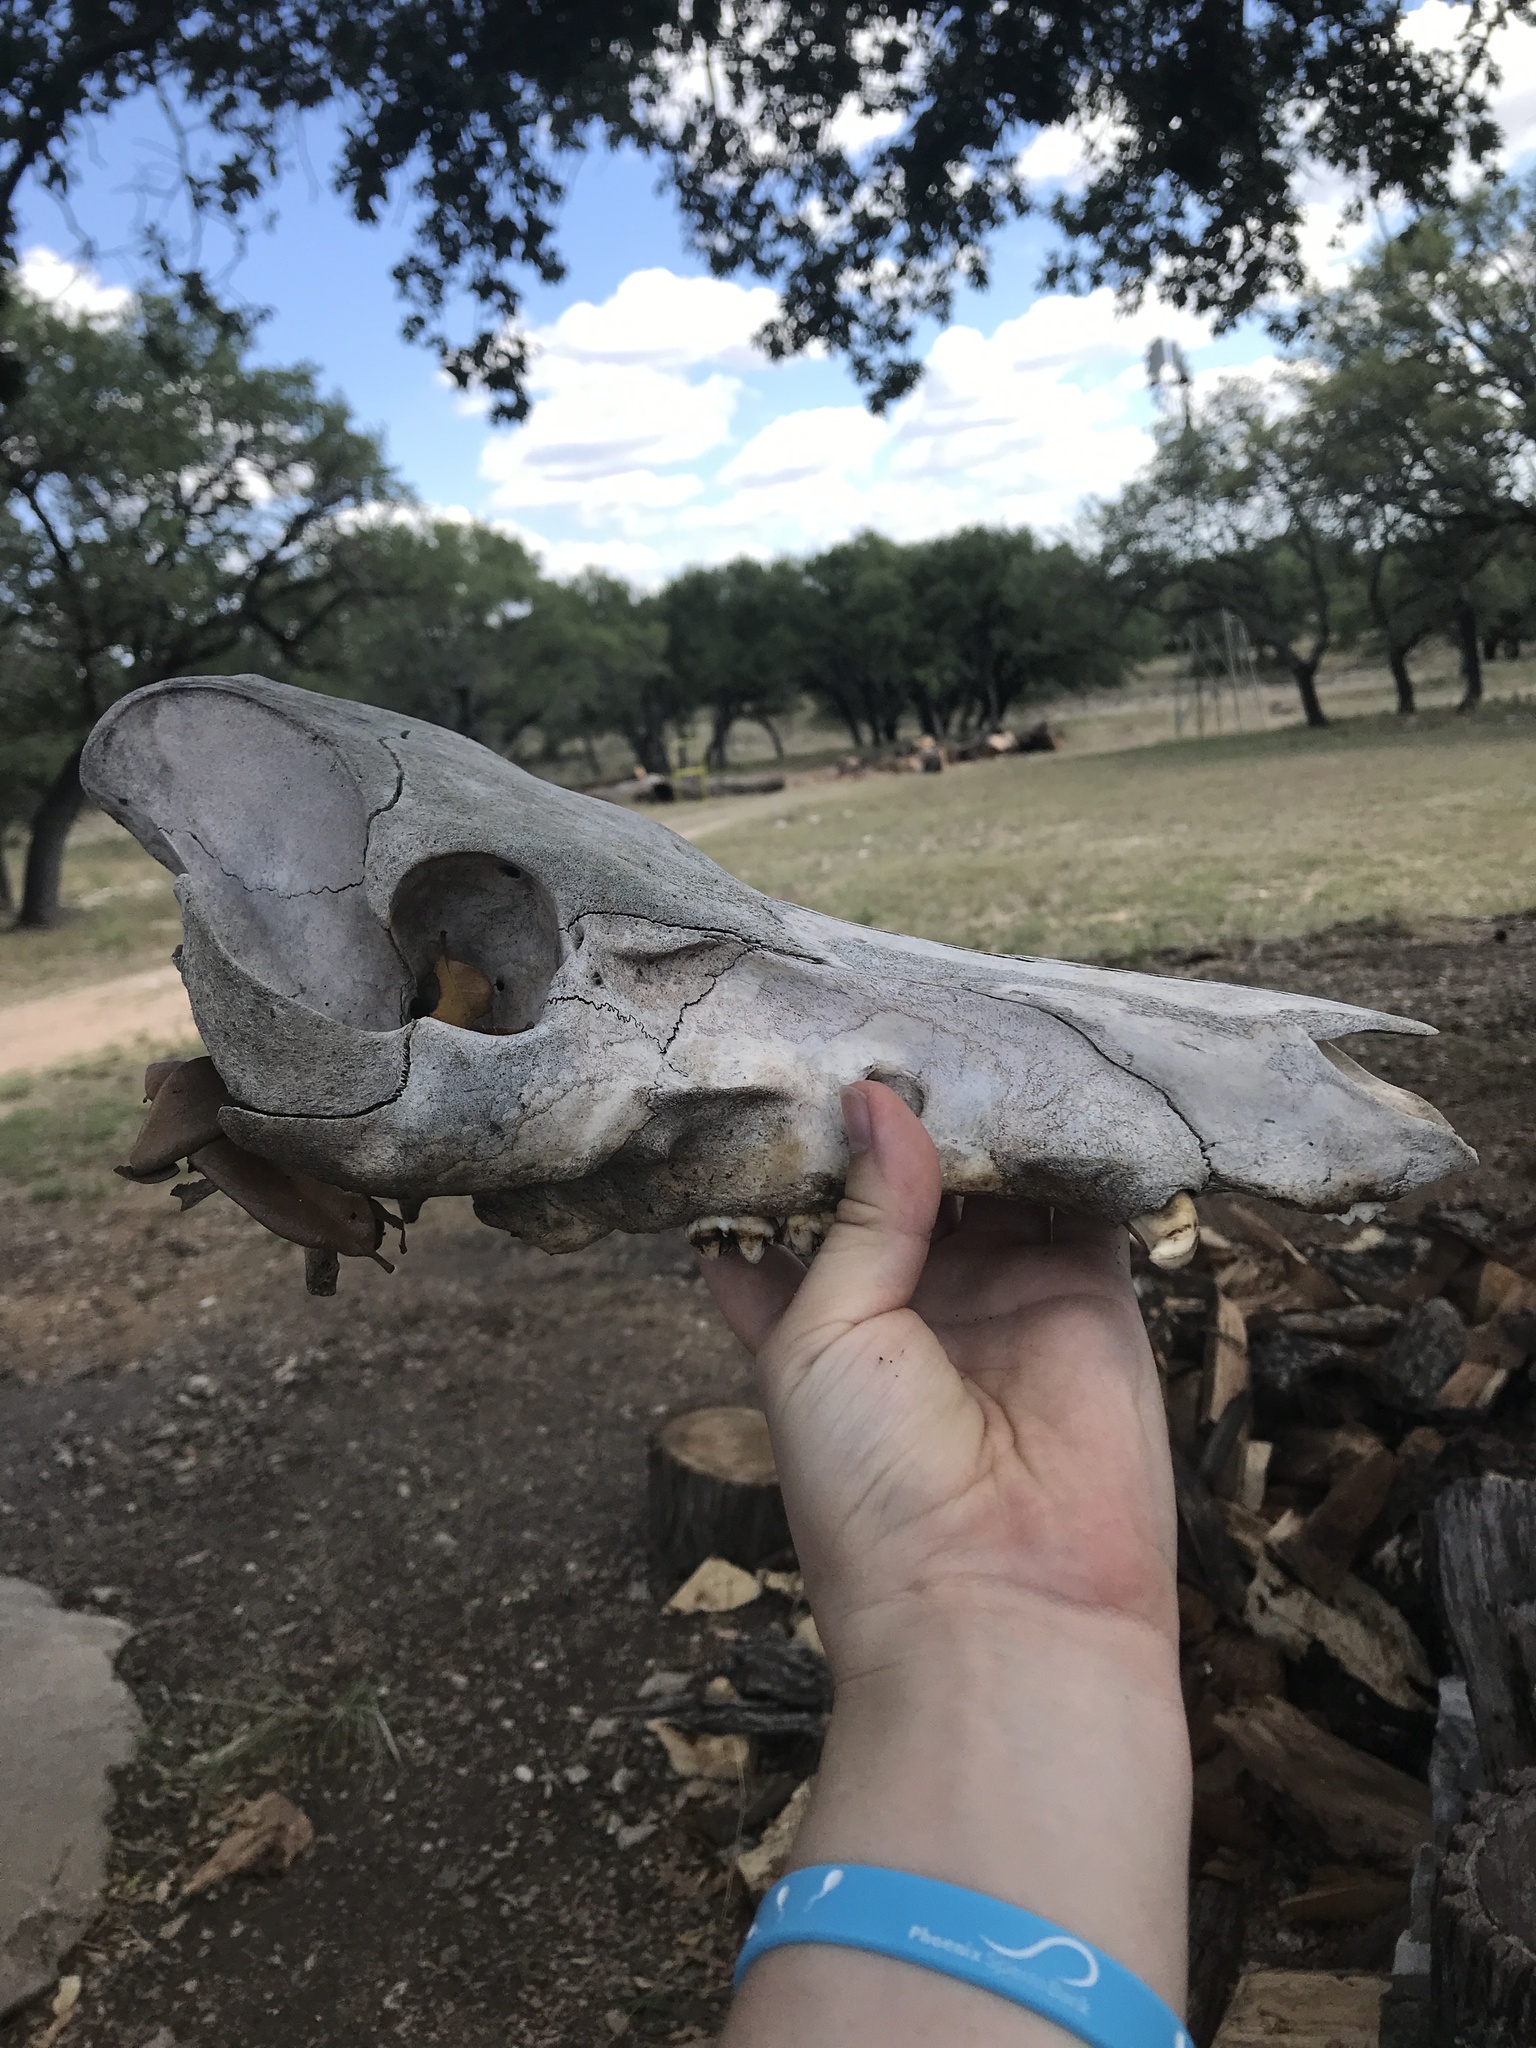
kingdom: Animalia
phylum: Chordata
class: Mammalia
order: Artiodactyla
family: Suidae
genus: Sus
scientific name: Sus scrofa
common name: Wild boar
